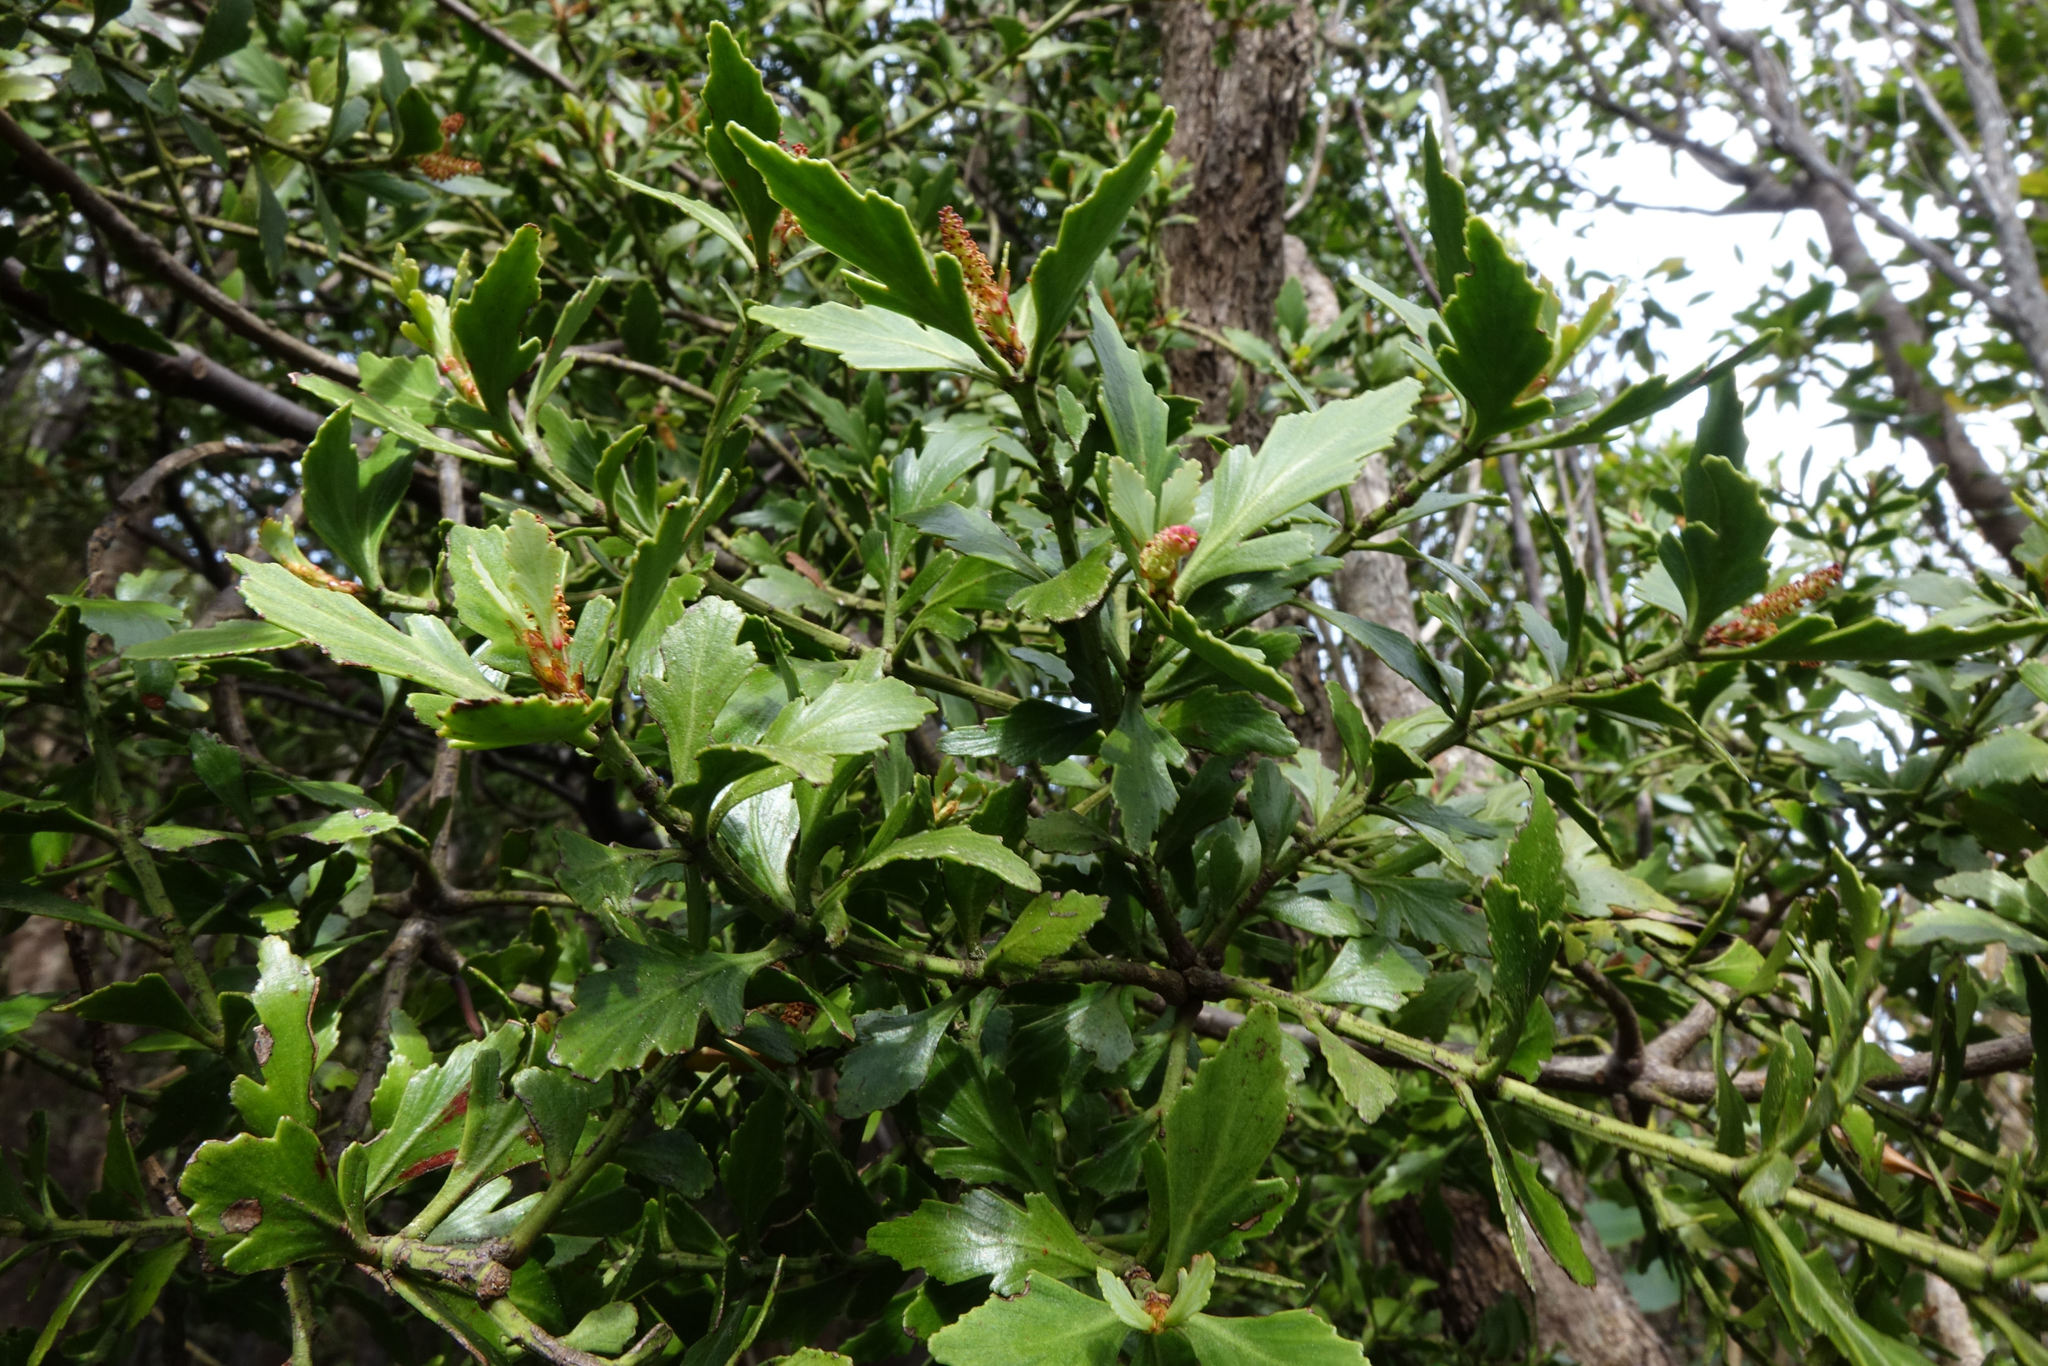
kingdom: Plantae
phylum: Tracheophyta
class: Pinopsida
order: Pinales
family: Phyllocladaceae
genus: Phyllocladus
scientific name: Phyllocladus trichomanoides
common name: Celery pine
